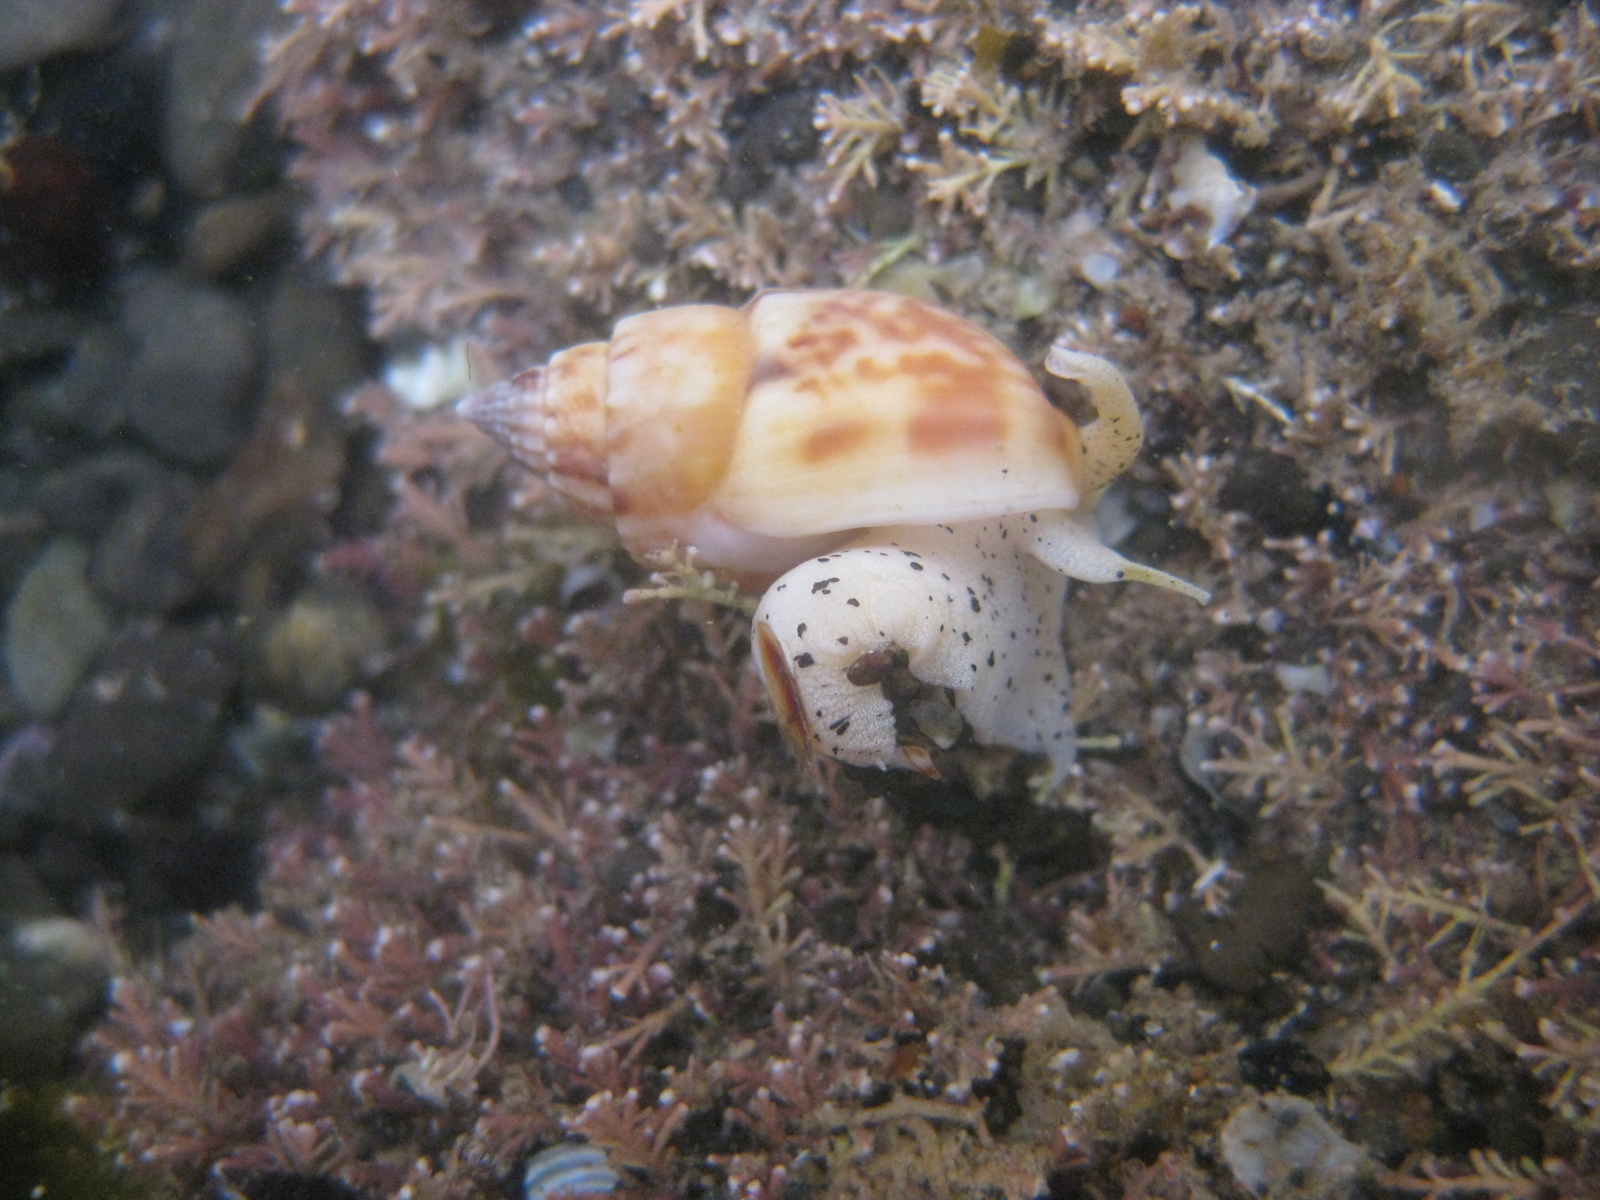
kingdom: Animalia
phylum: Mollusca
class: Gastropoda
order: Neogastropoda
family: Nassariidae
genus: Nassarius
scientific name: Nassarius spiratus
